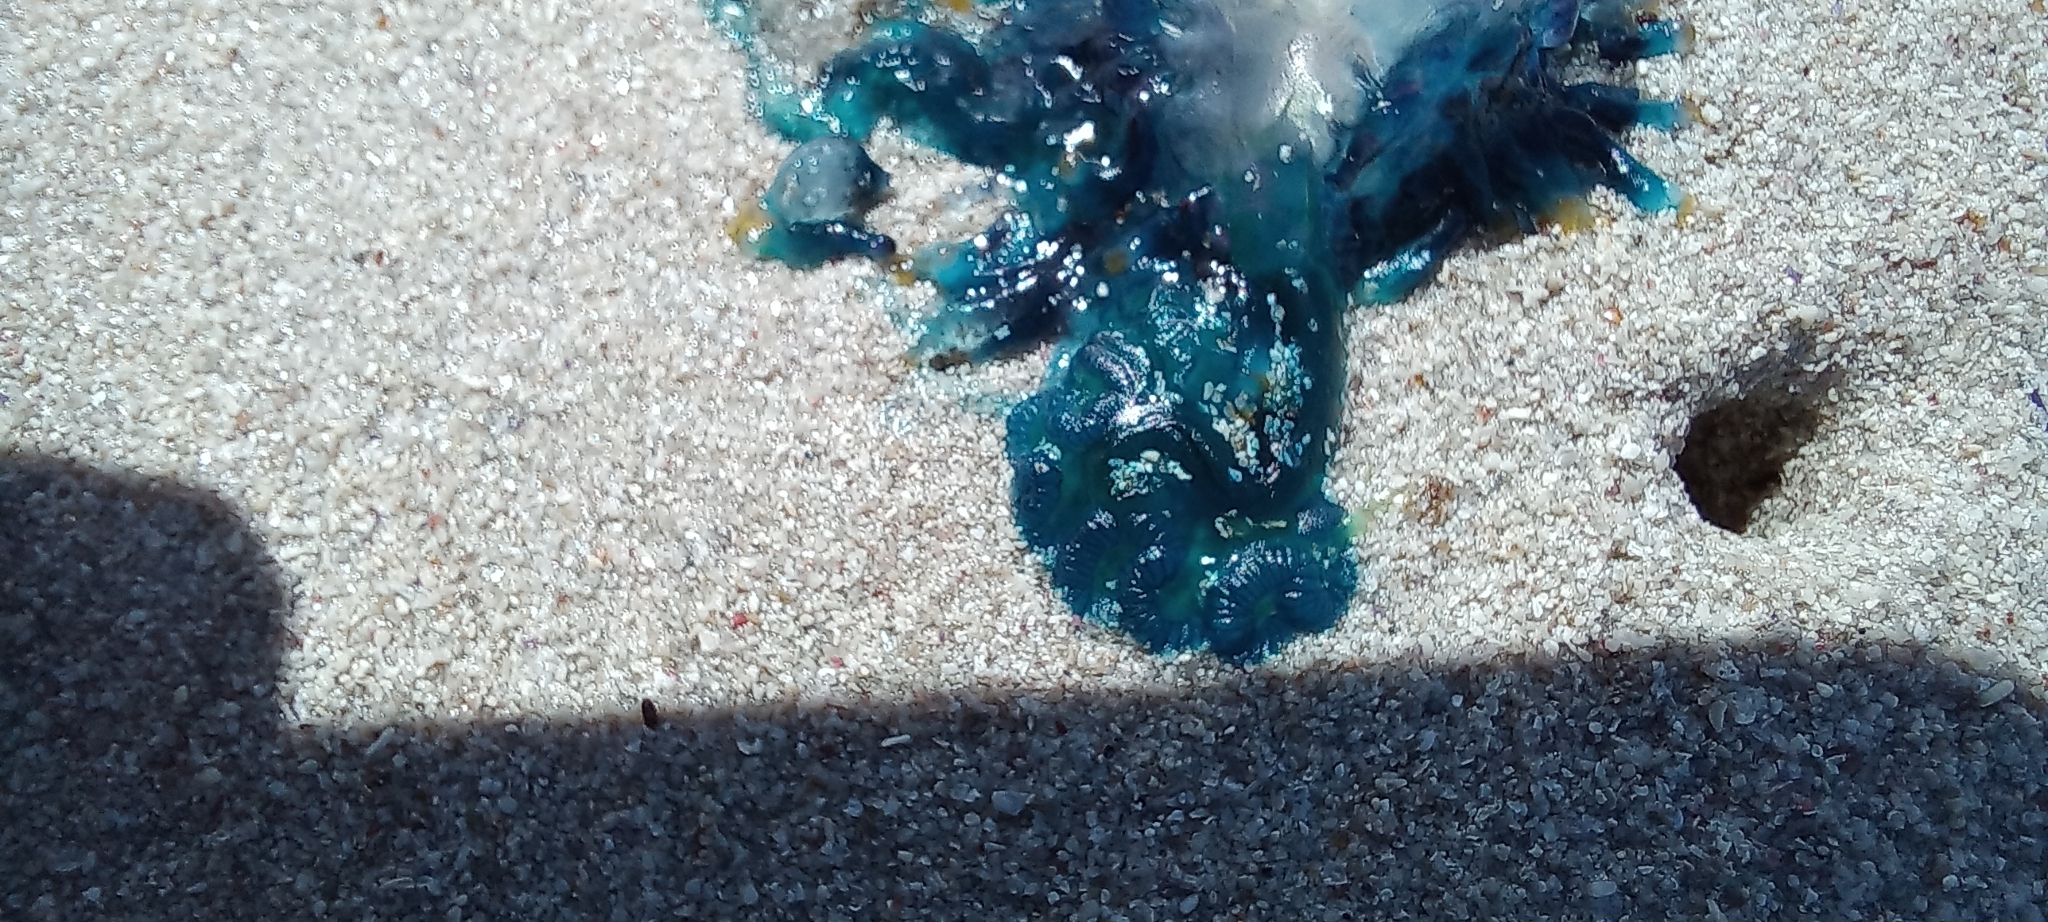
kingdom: Animalia
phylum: Cnidaria
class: Hydrozoa
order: Siphonophorae
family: Physaliidae
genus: Physalia
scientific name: Physalia physalis
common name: Portuguese man-of-war
